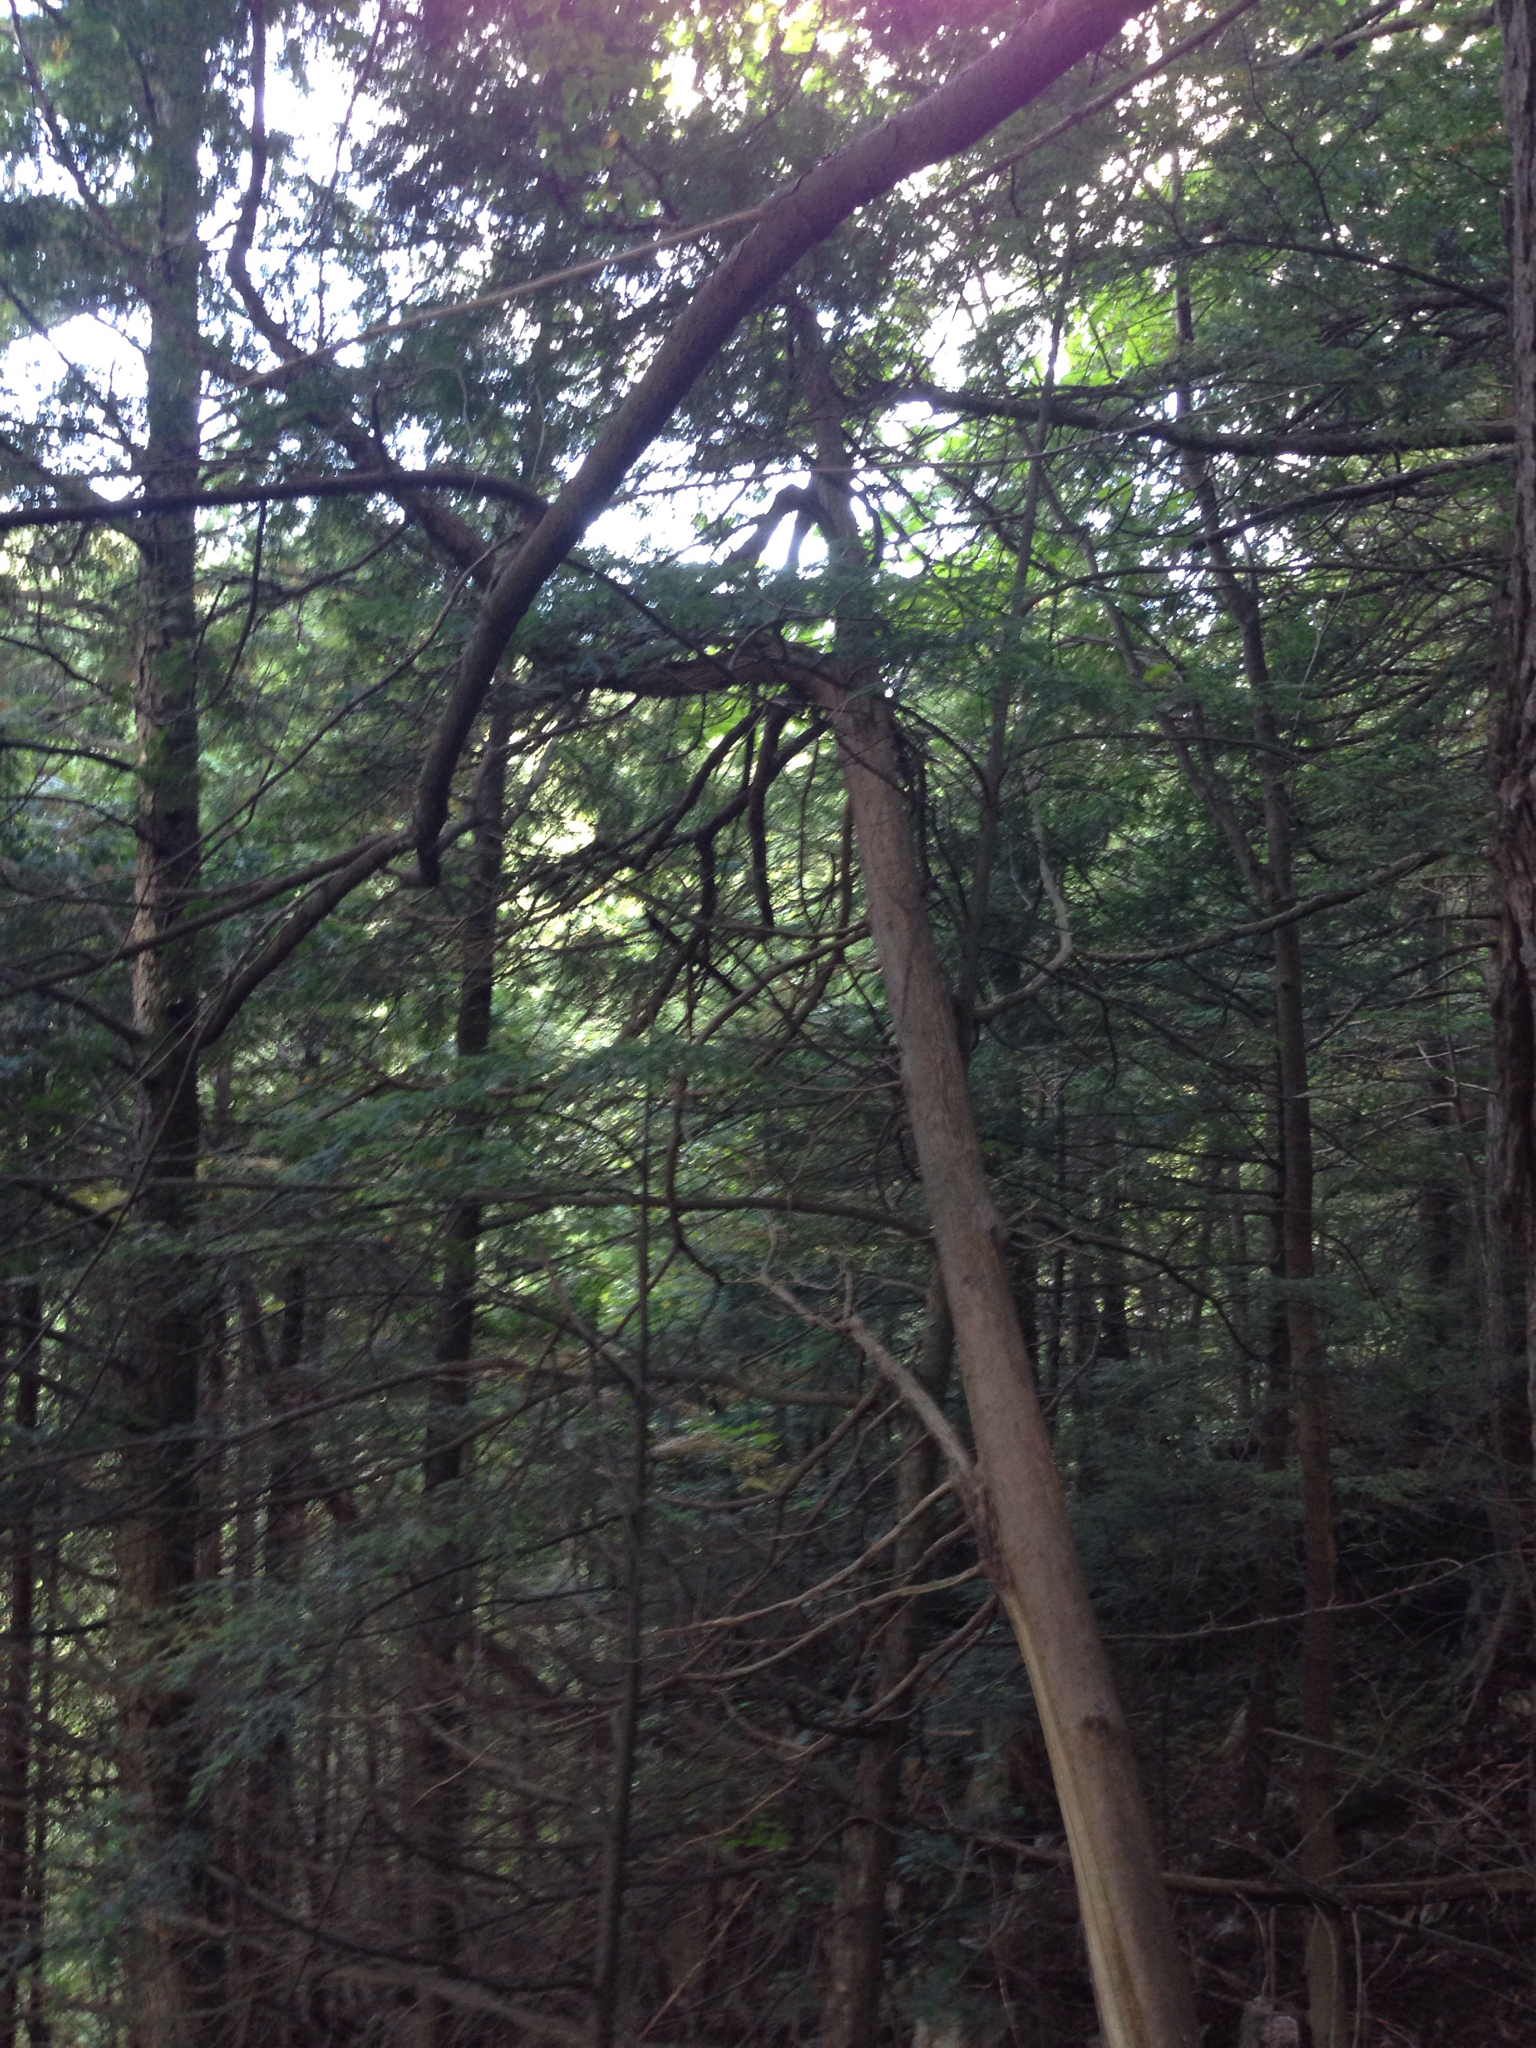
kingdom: Plantae
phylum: Tracheophyta
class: Pinopsida
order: Pinales
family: Cupressaceae
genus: Thuja
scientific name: Thuja occidentalis
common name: Northern white-cedar
